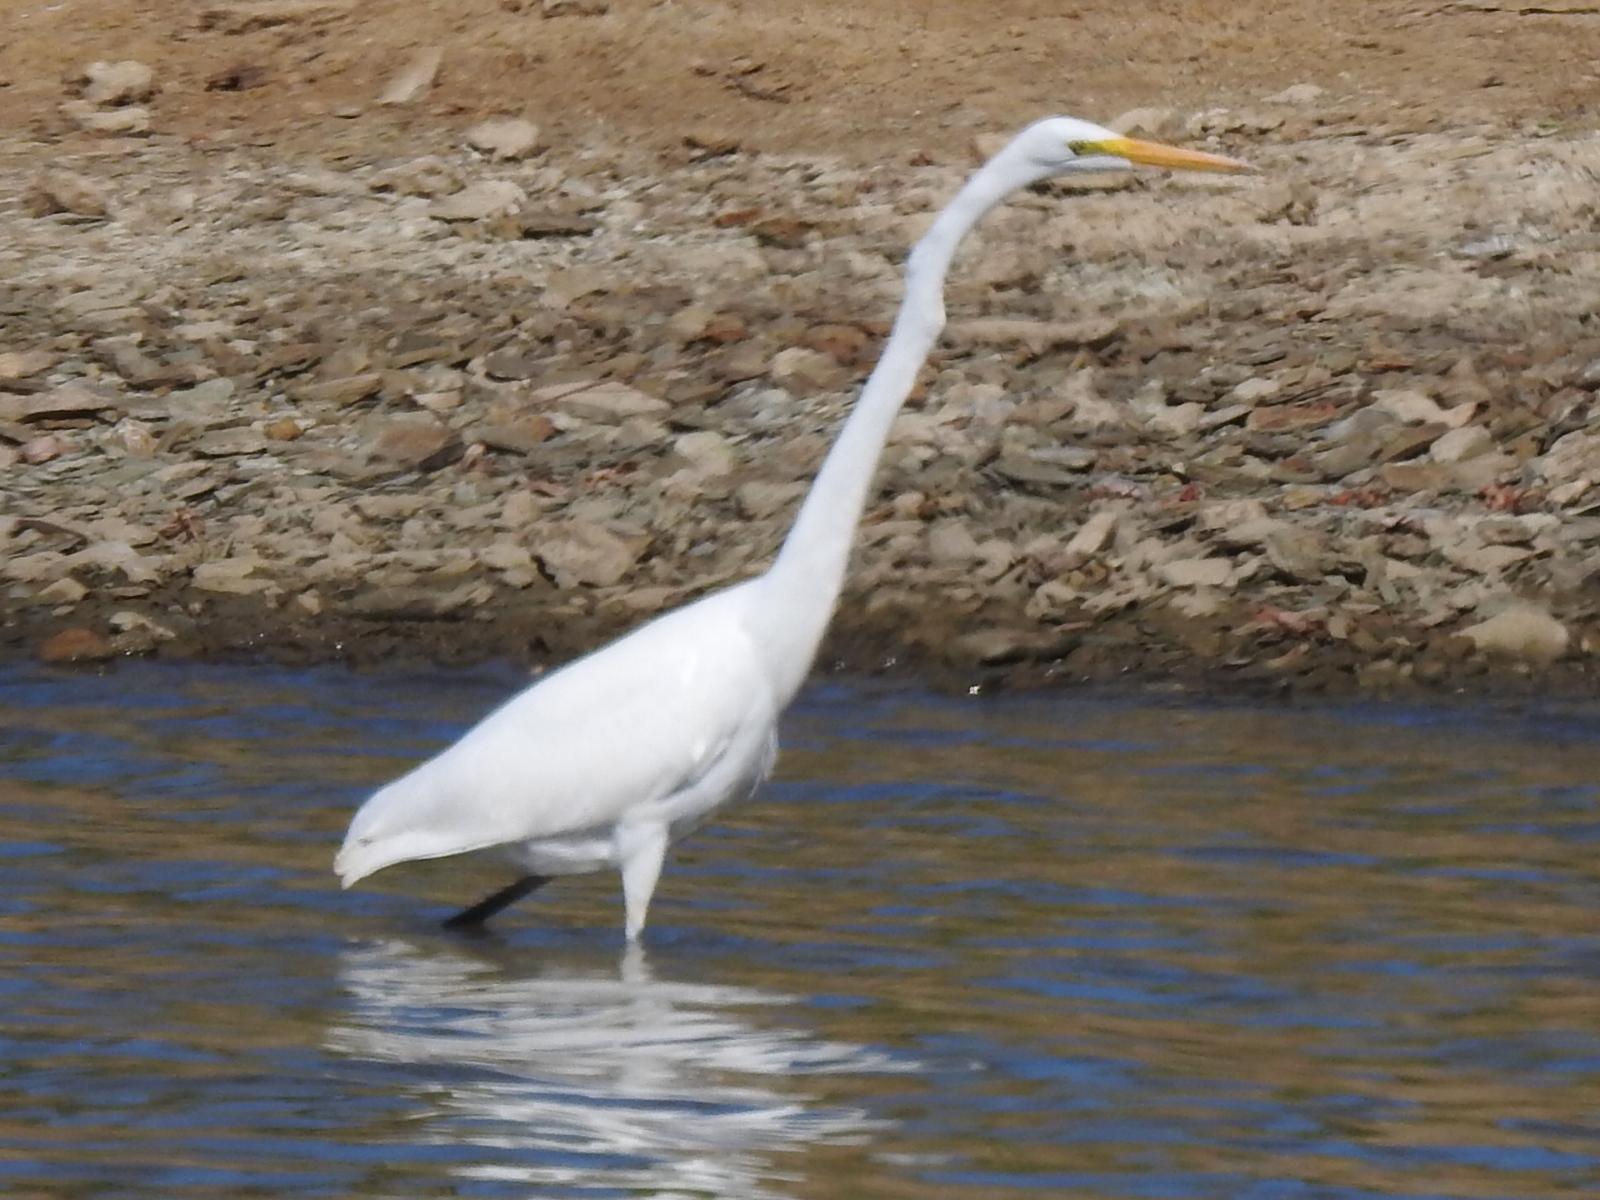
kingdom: Animalia
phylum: Chordata
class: Aves
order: Pelecaniformes
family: Ardeidae
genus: Ardea
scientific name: Ardea alba
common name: Great egret
